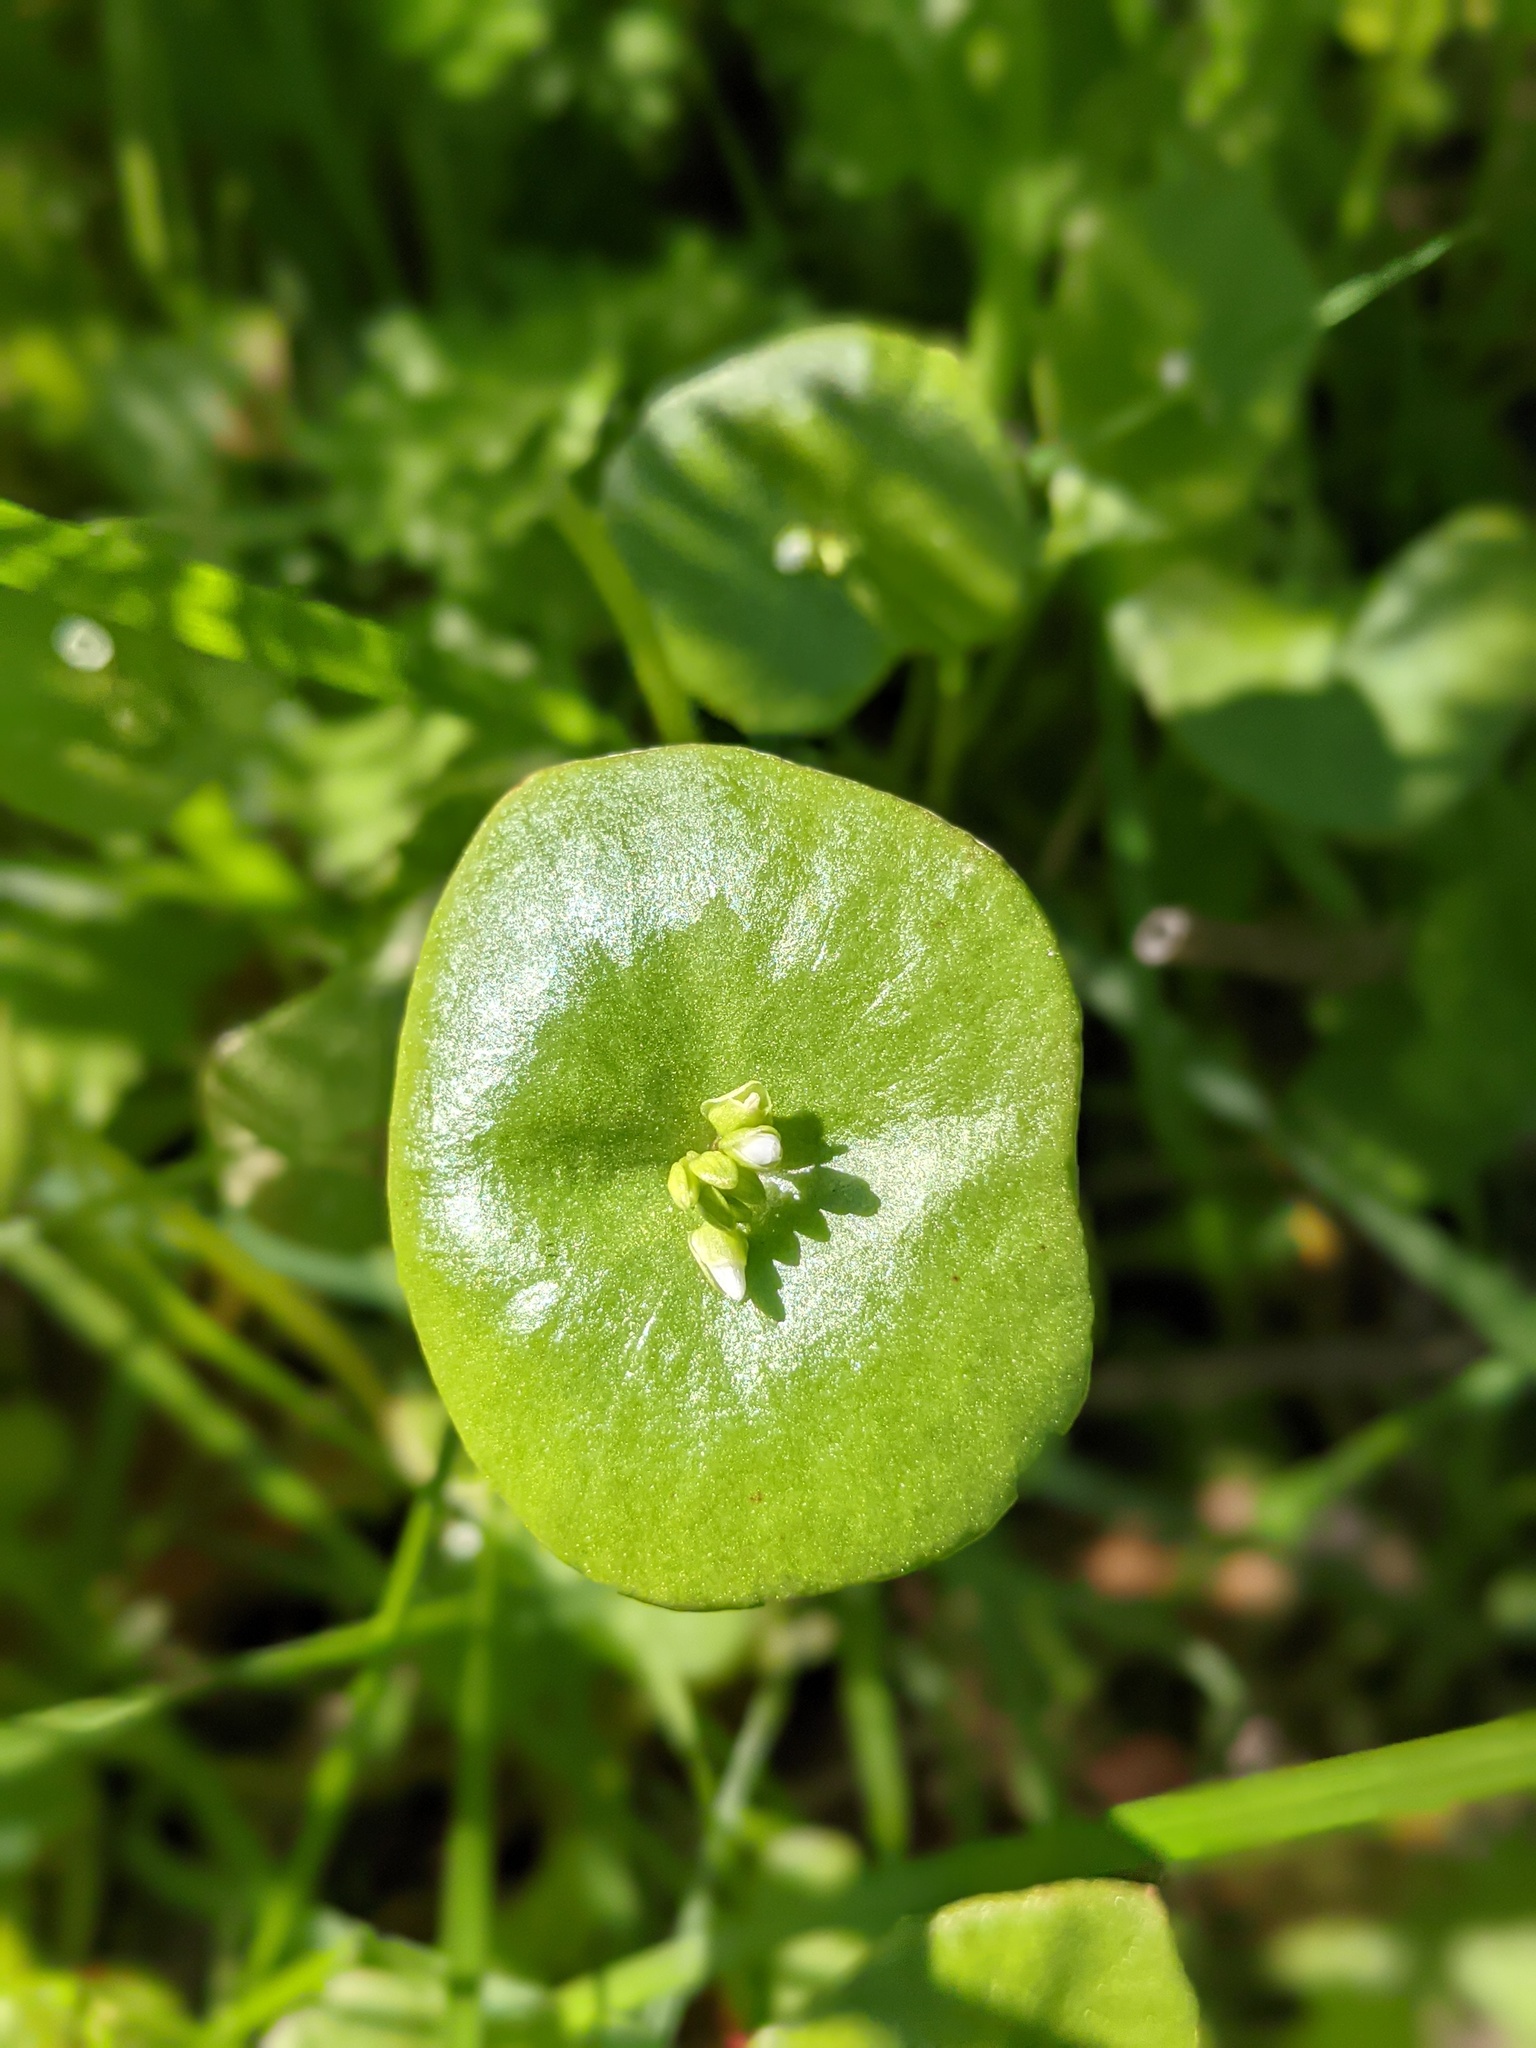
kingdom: Plantae
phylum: Tracheophyta
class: Magnoliopsida
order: Caryophyllales
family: Montiaceae
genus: Claytonia
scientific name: Claytonia perfoliata
